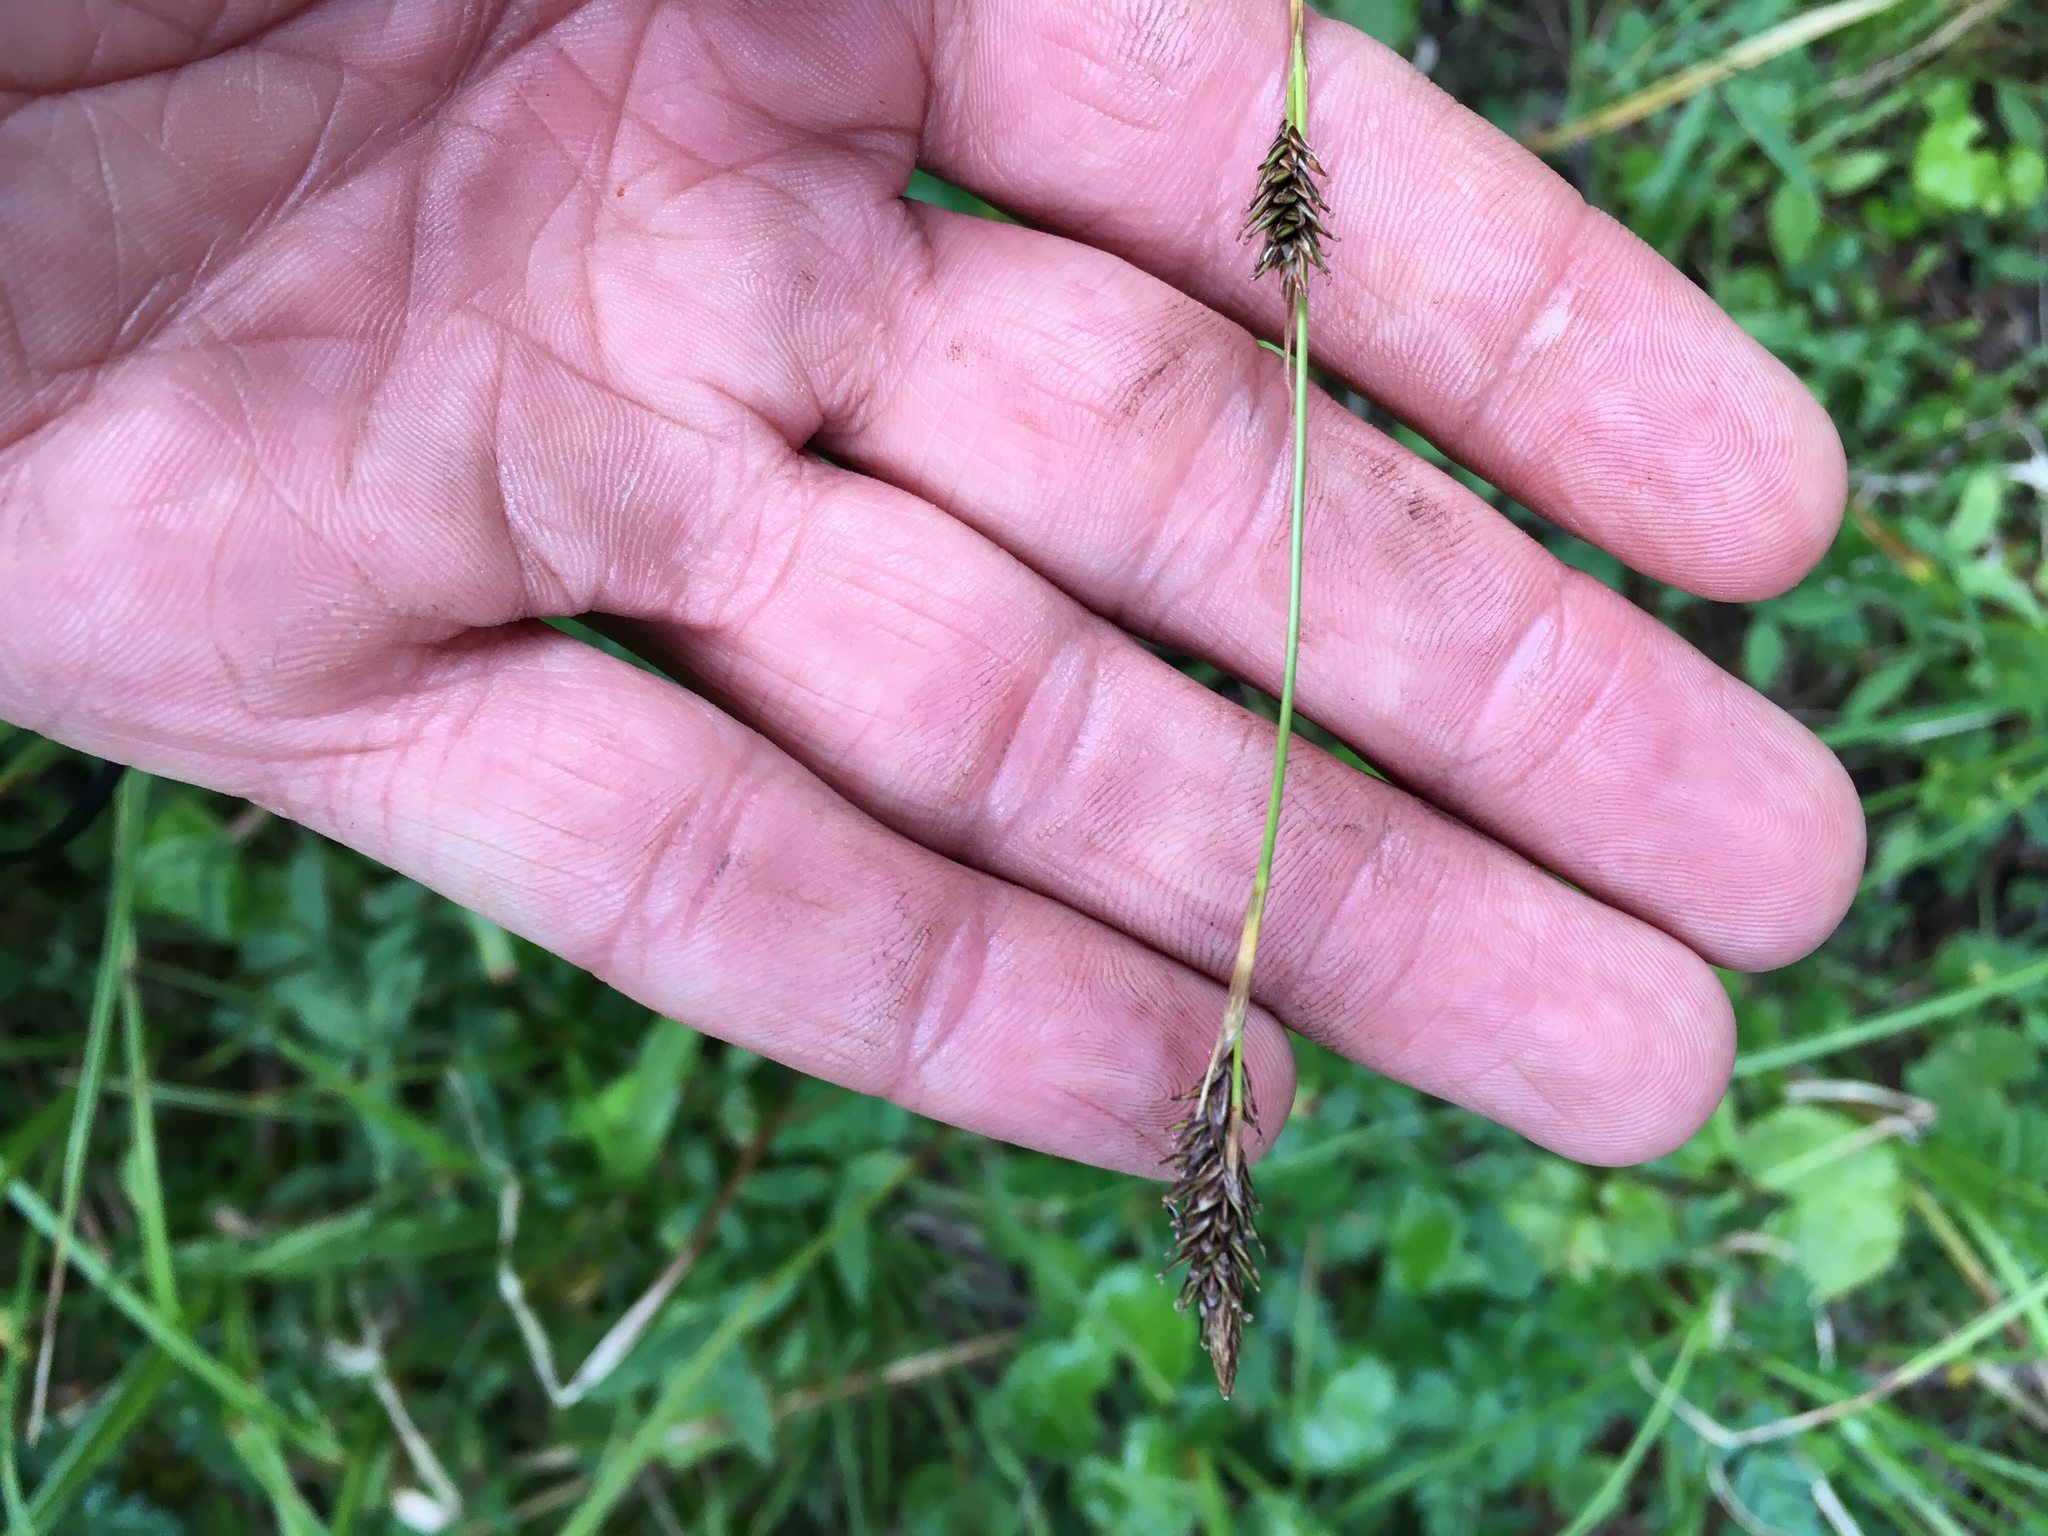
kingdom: Plantae
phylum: Tracheophyta
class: Liliopsida
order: Poales
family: Cyperaceae
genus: Carex
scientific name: Carex luzulina
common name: Spring sedge
